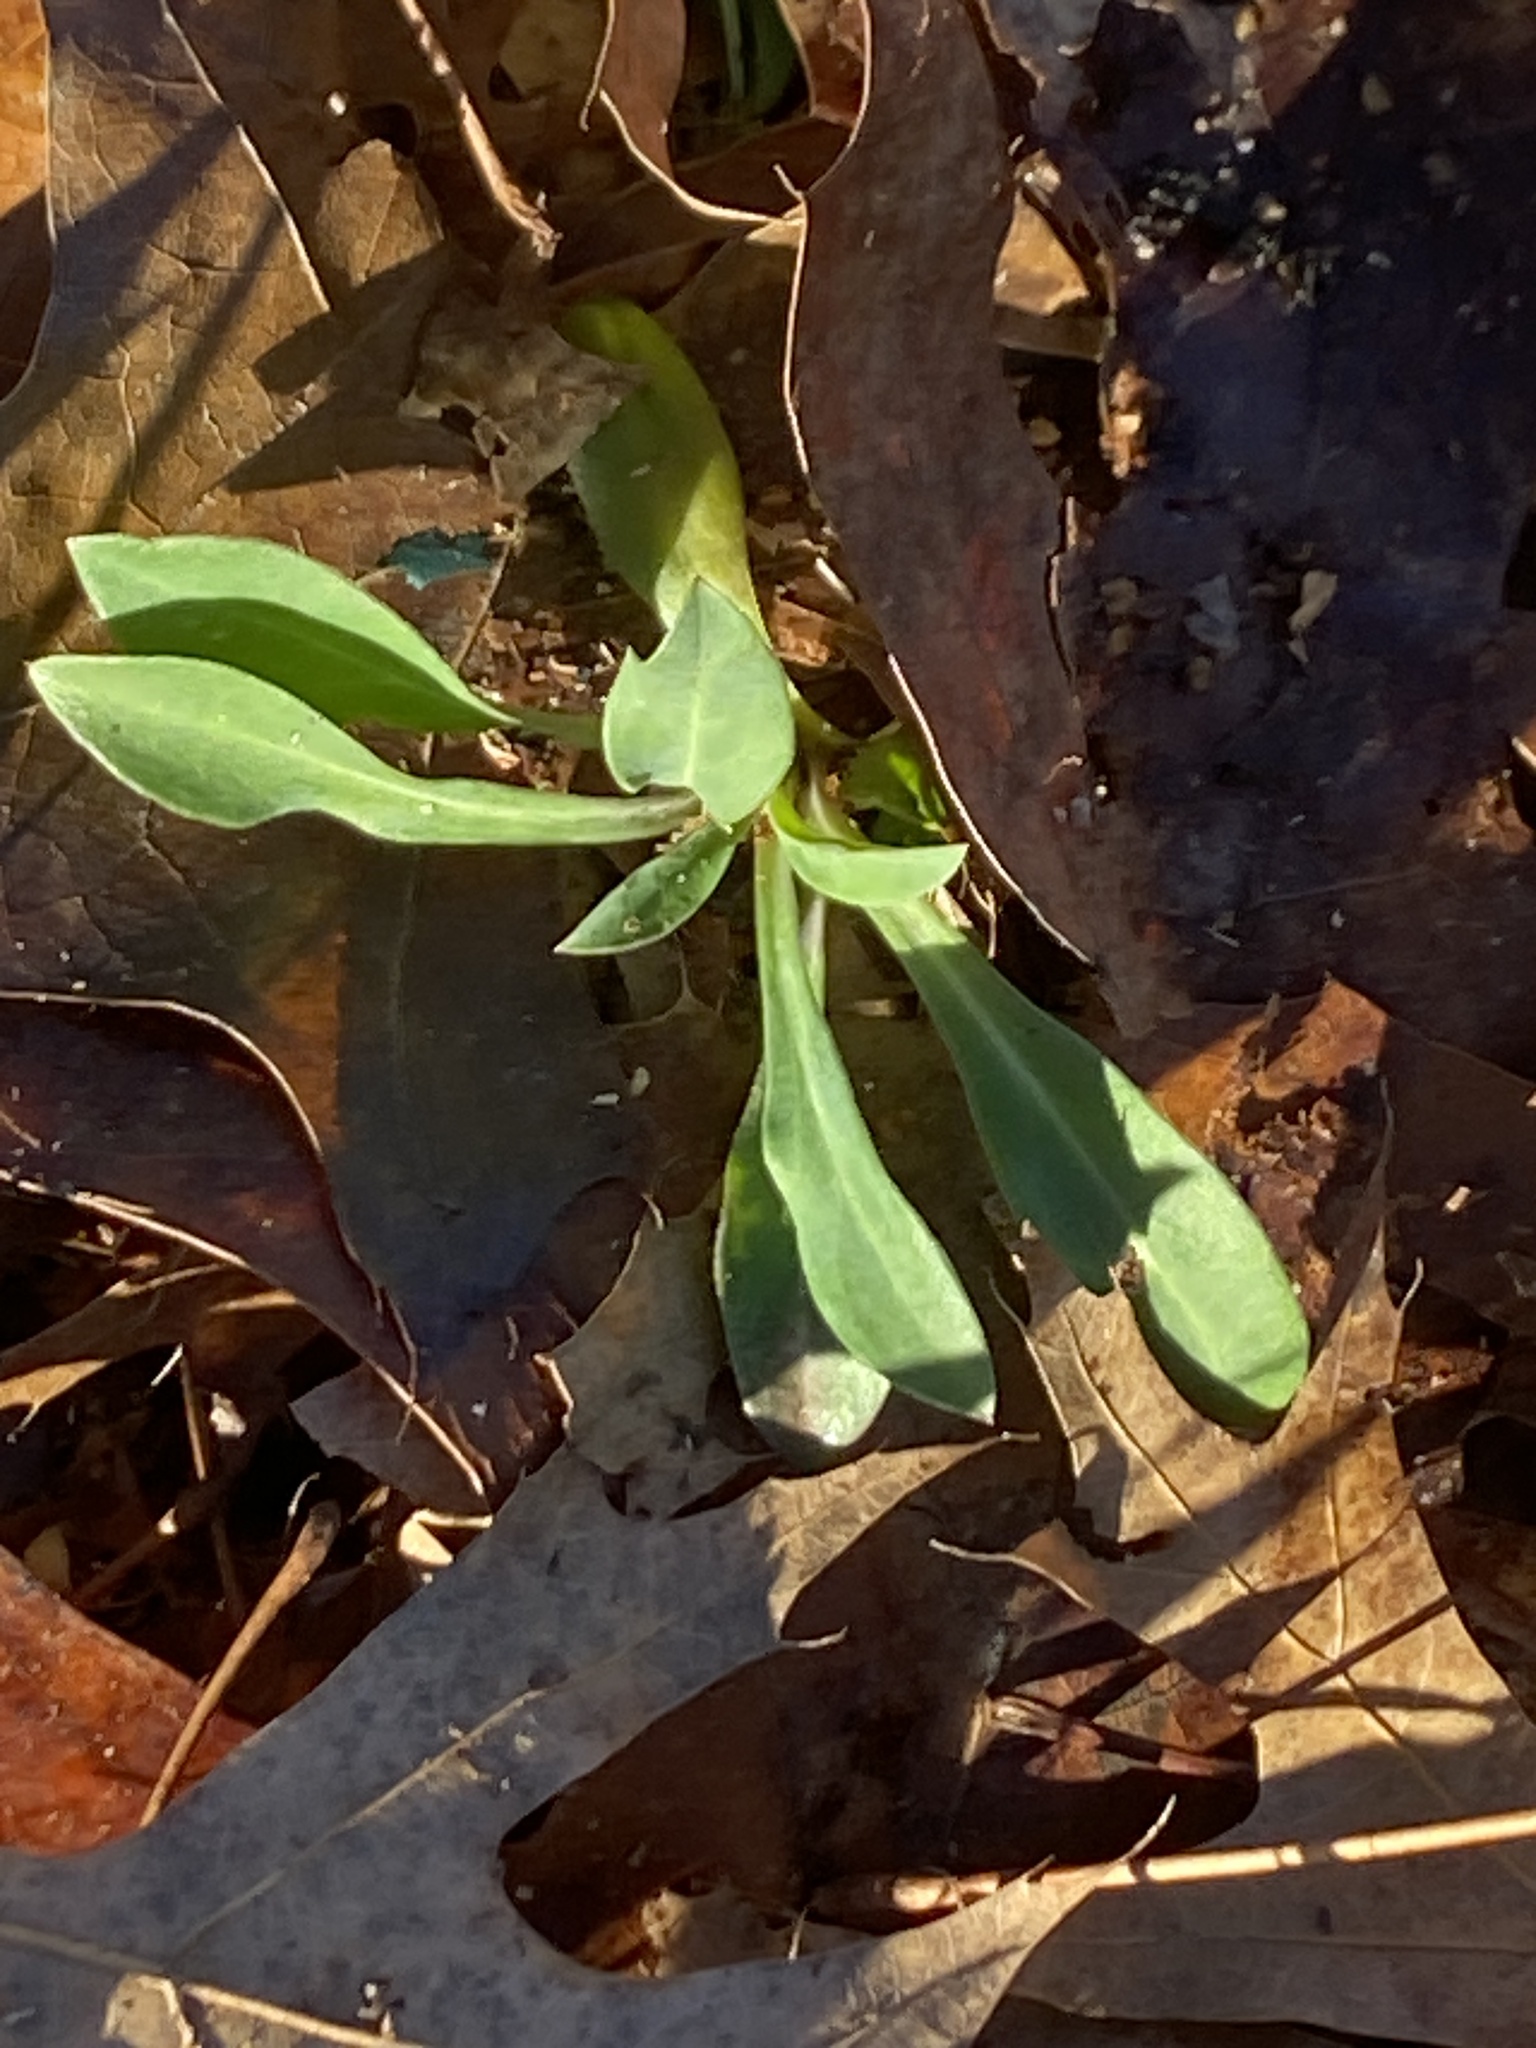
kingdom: Plantae
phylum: Tracheophyta
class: Magnoliopsida
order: Caryophyllales
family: Caryophyllaceae
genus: Silene
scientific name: Silene vulgaris
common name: Bladder campion
